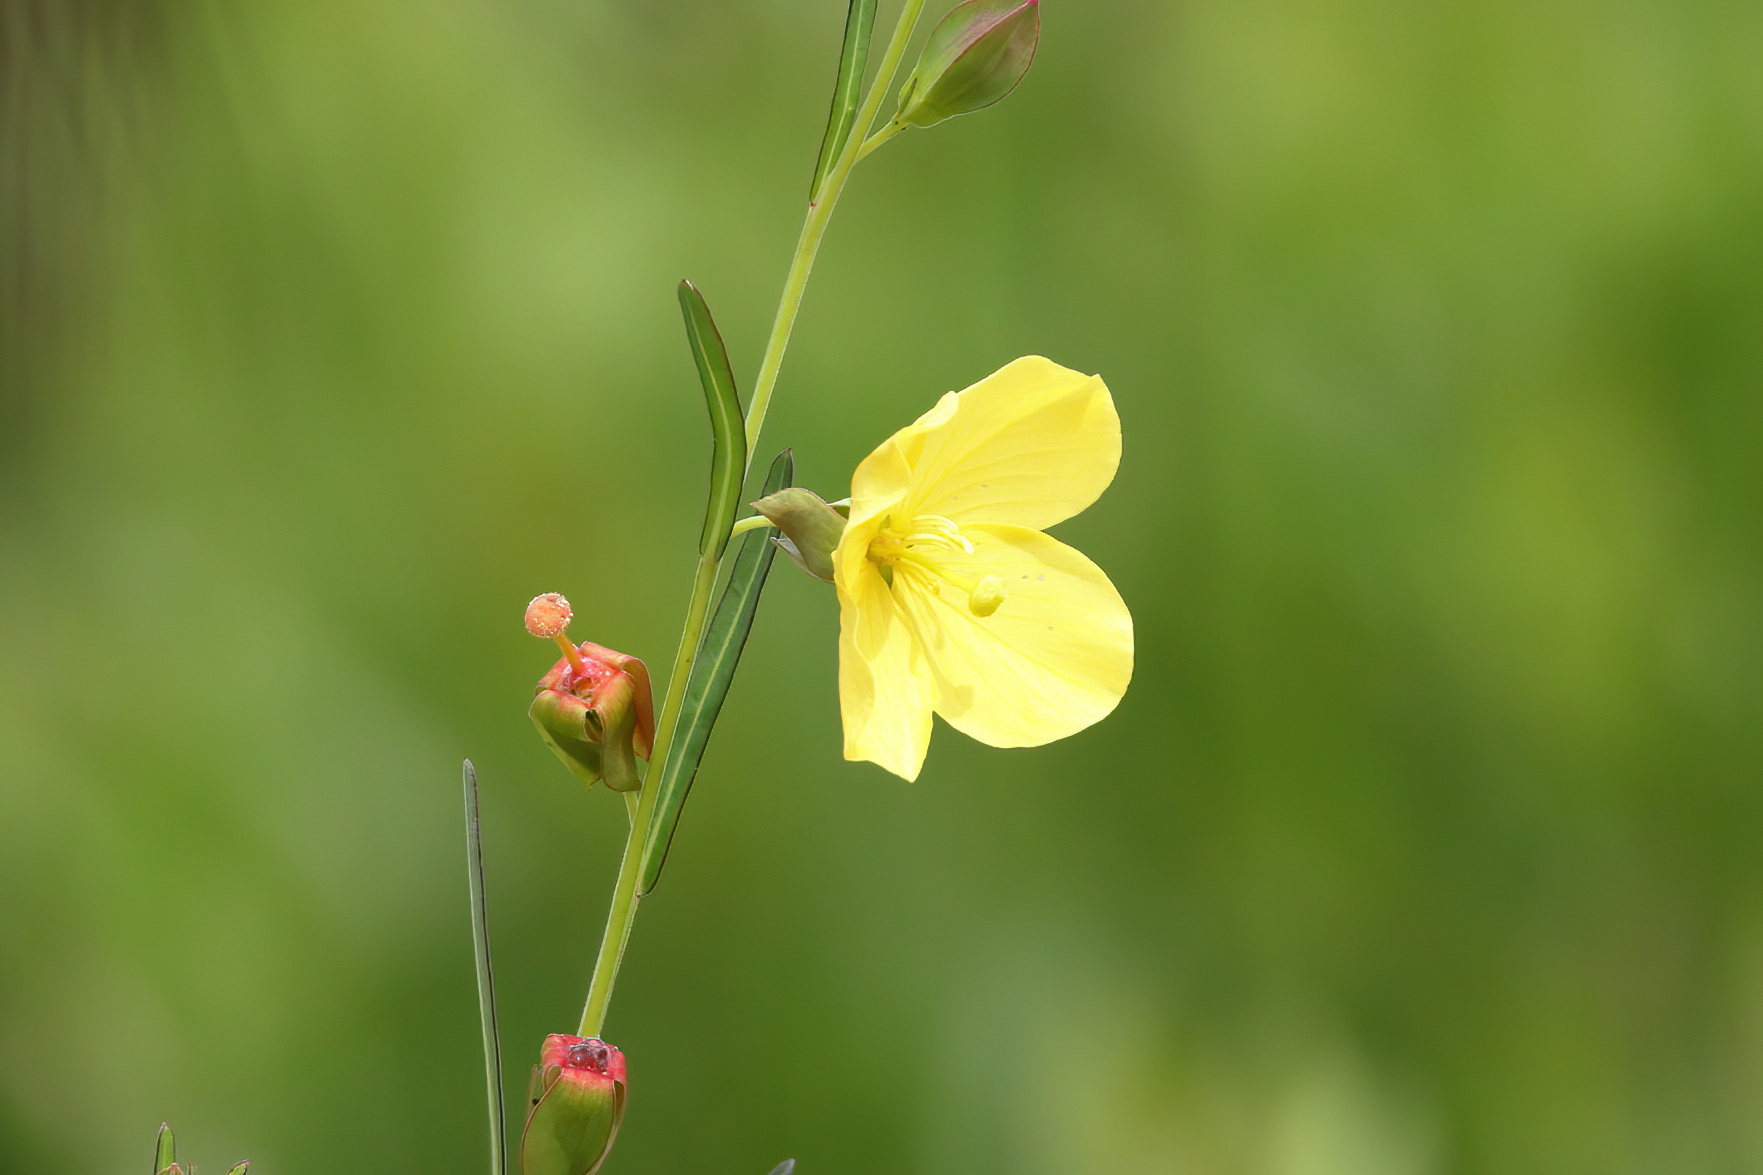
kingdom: Plantae
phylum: Tracheophyta
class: Magnoliopsida
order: Myrtales
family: Onagraceae
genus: Ludwigia
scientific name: Ludwigia virgata
